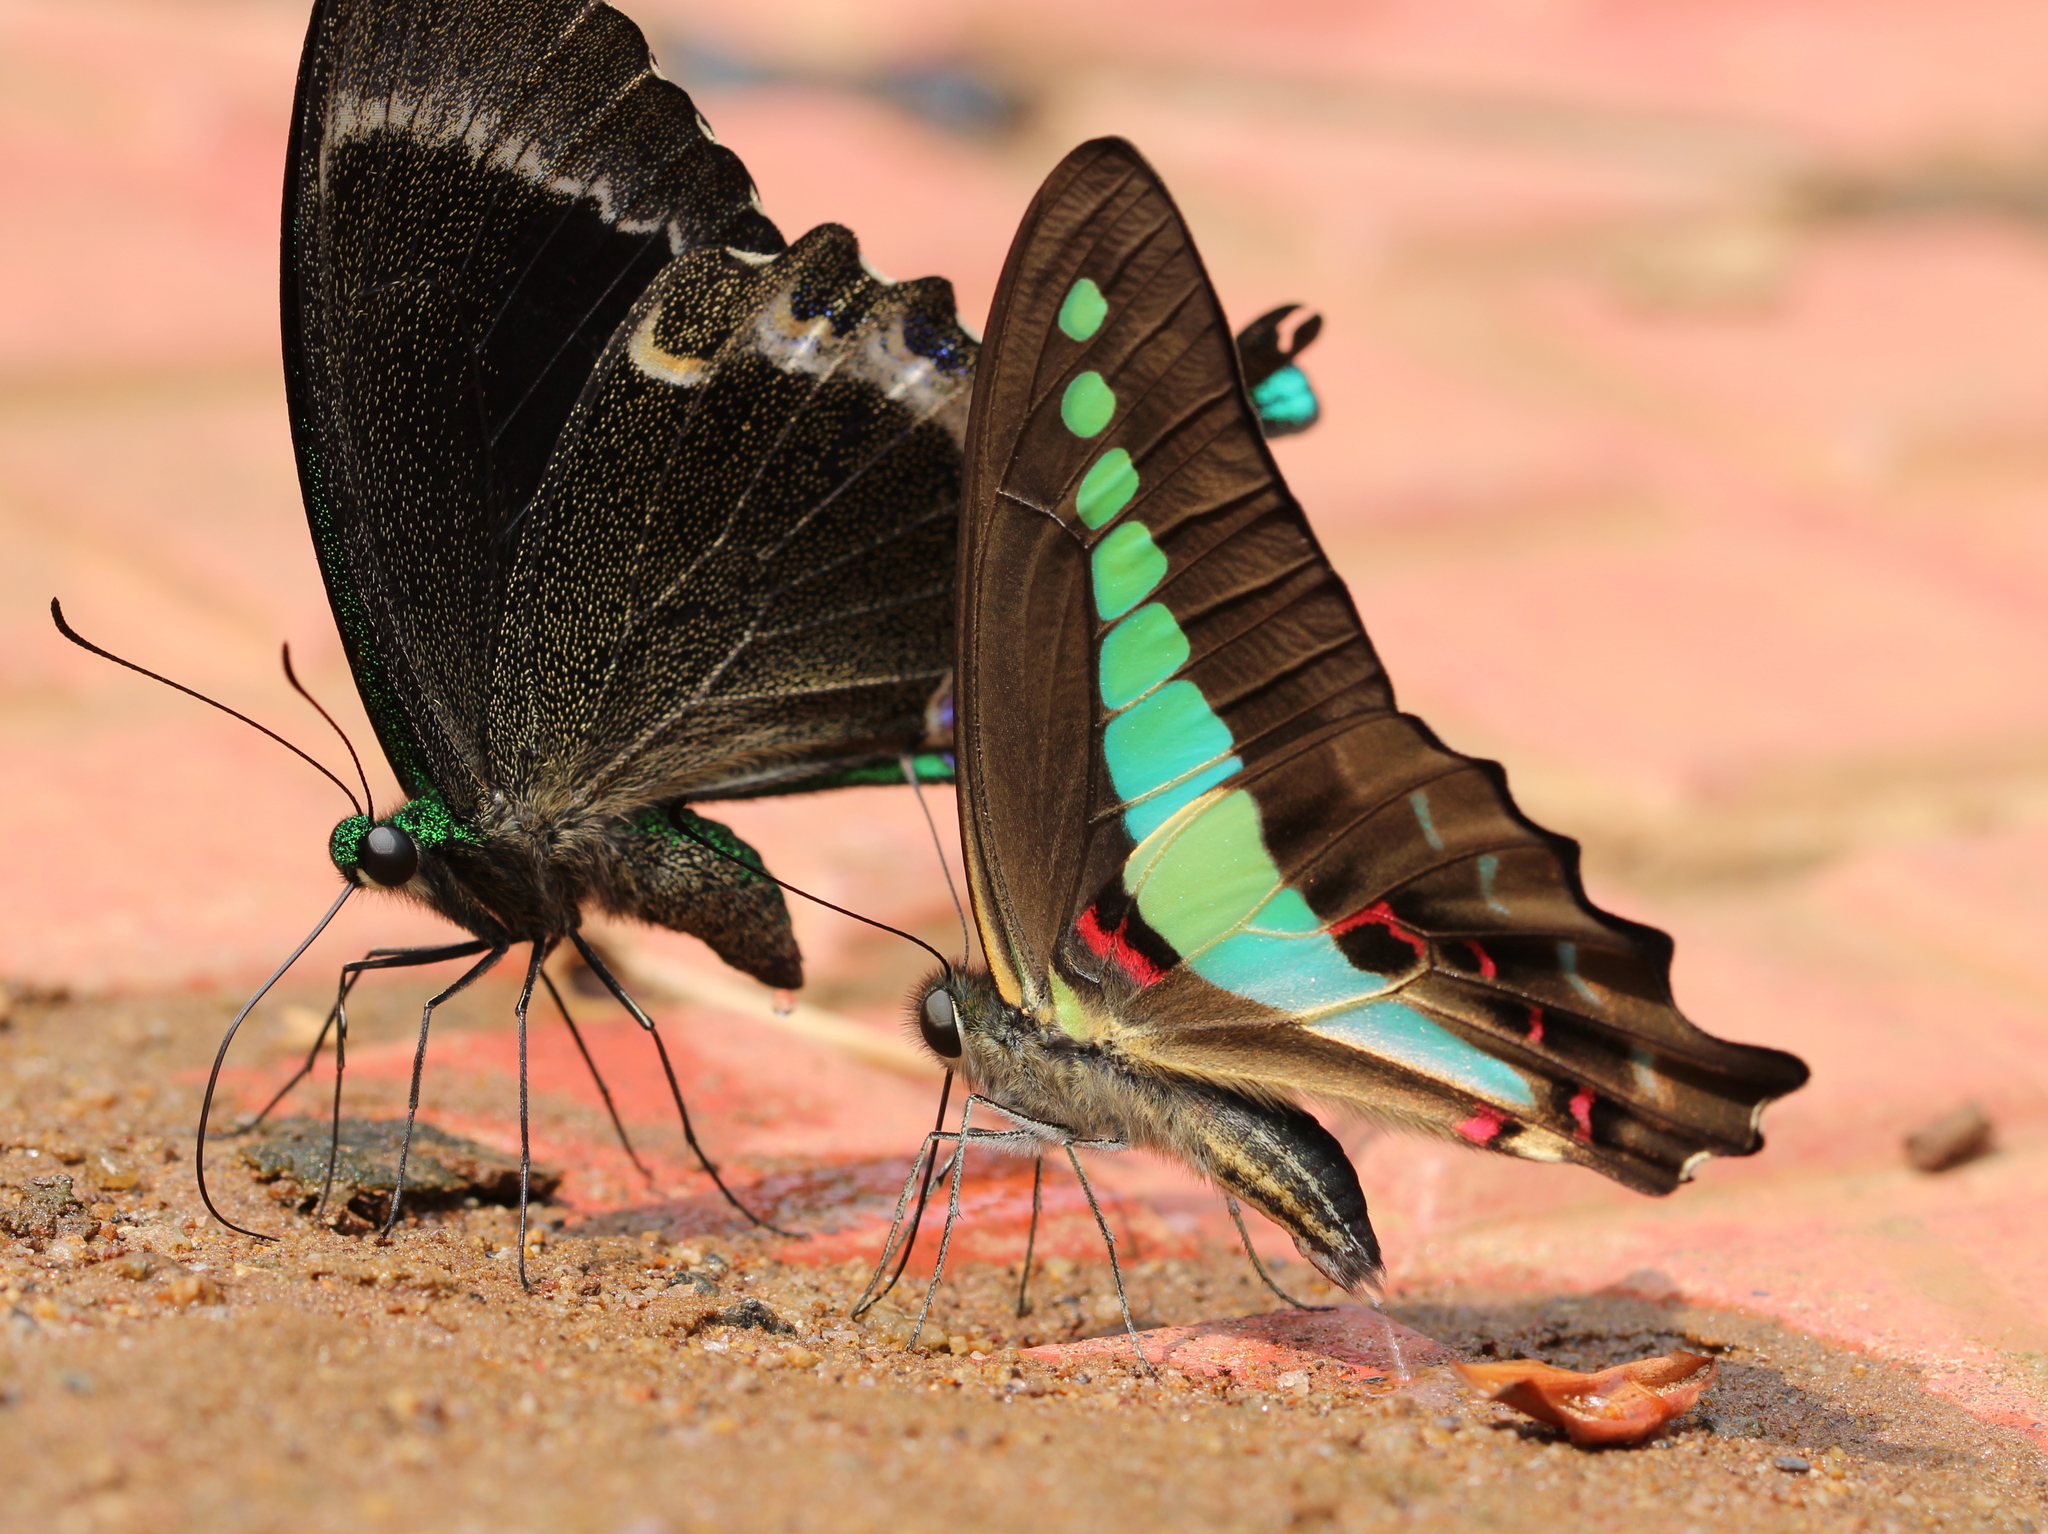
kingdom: Animalia
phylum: Arthropoda
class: Insecta
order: Lepidoptera
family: Papilionidae
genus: Graphium
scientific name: Graphium
